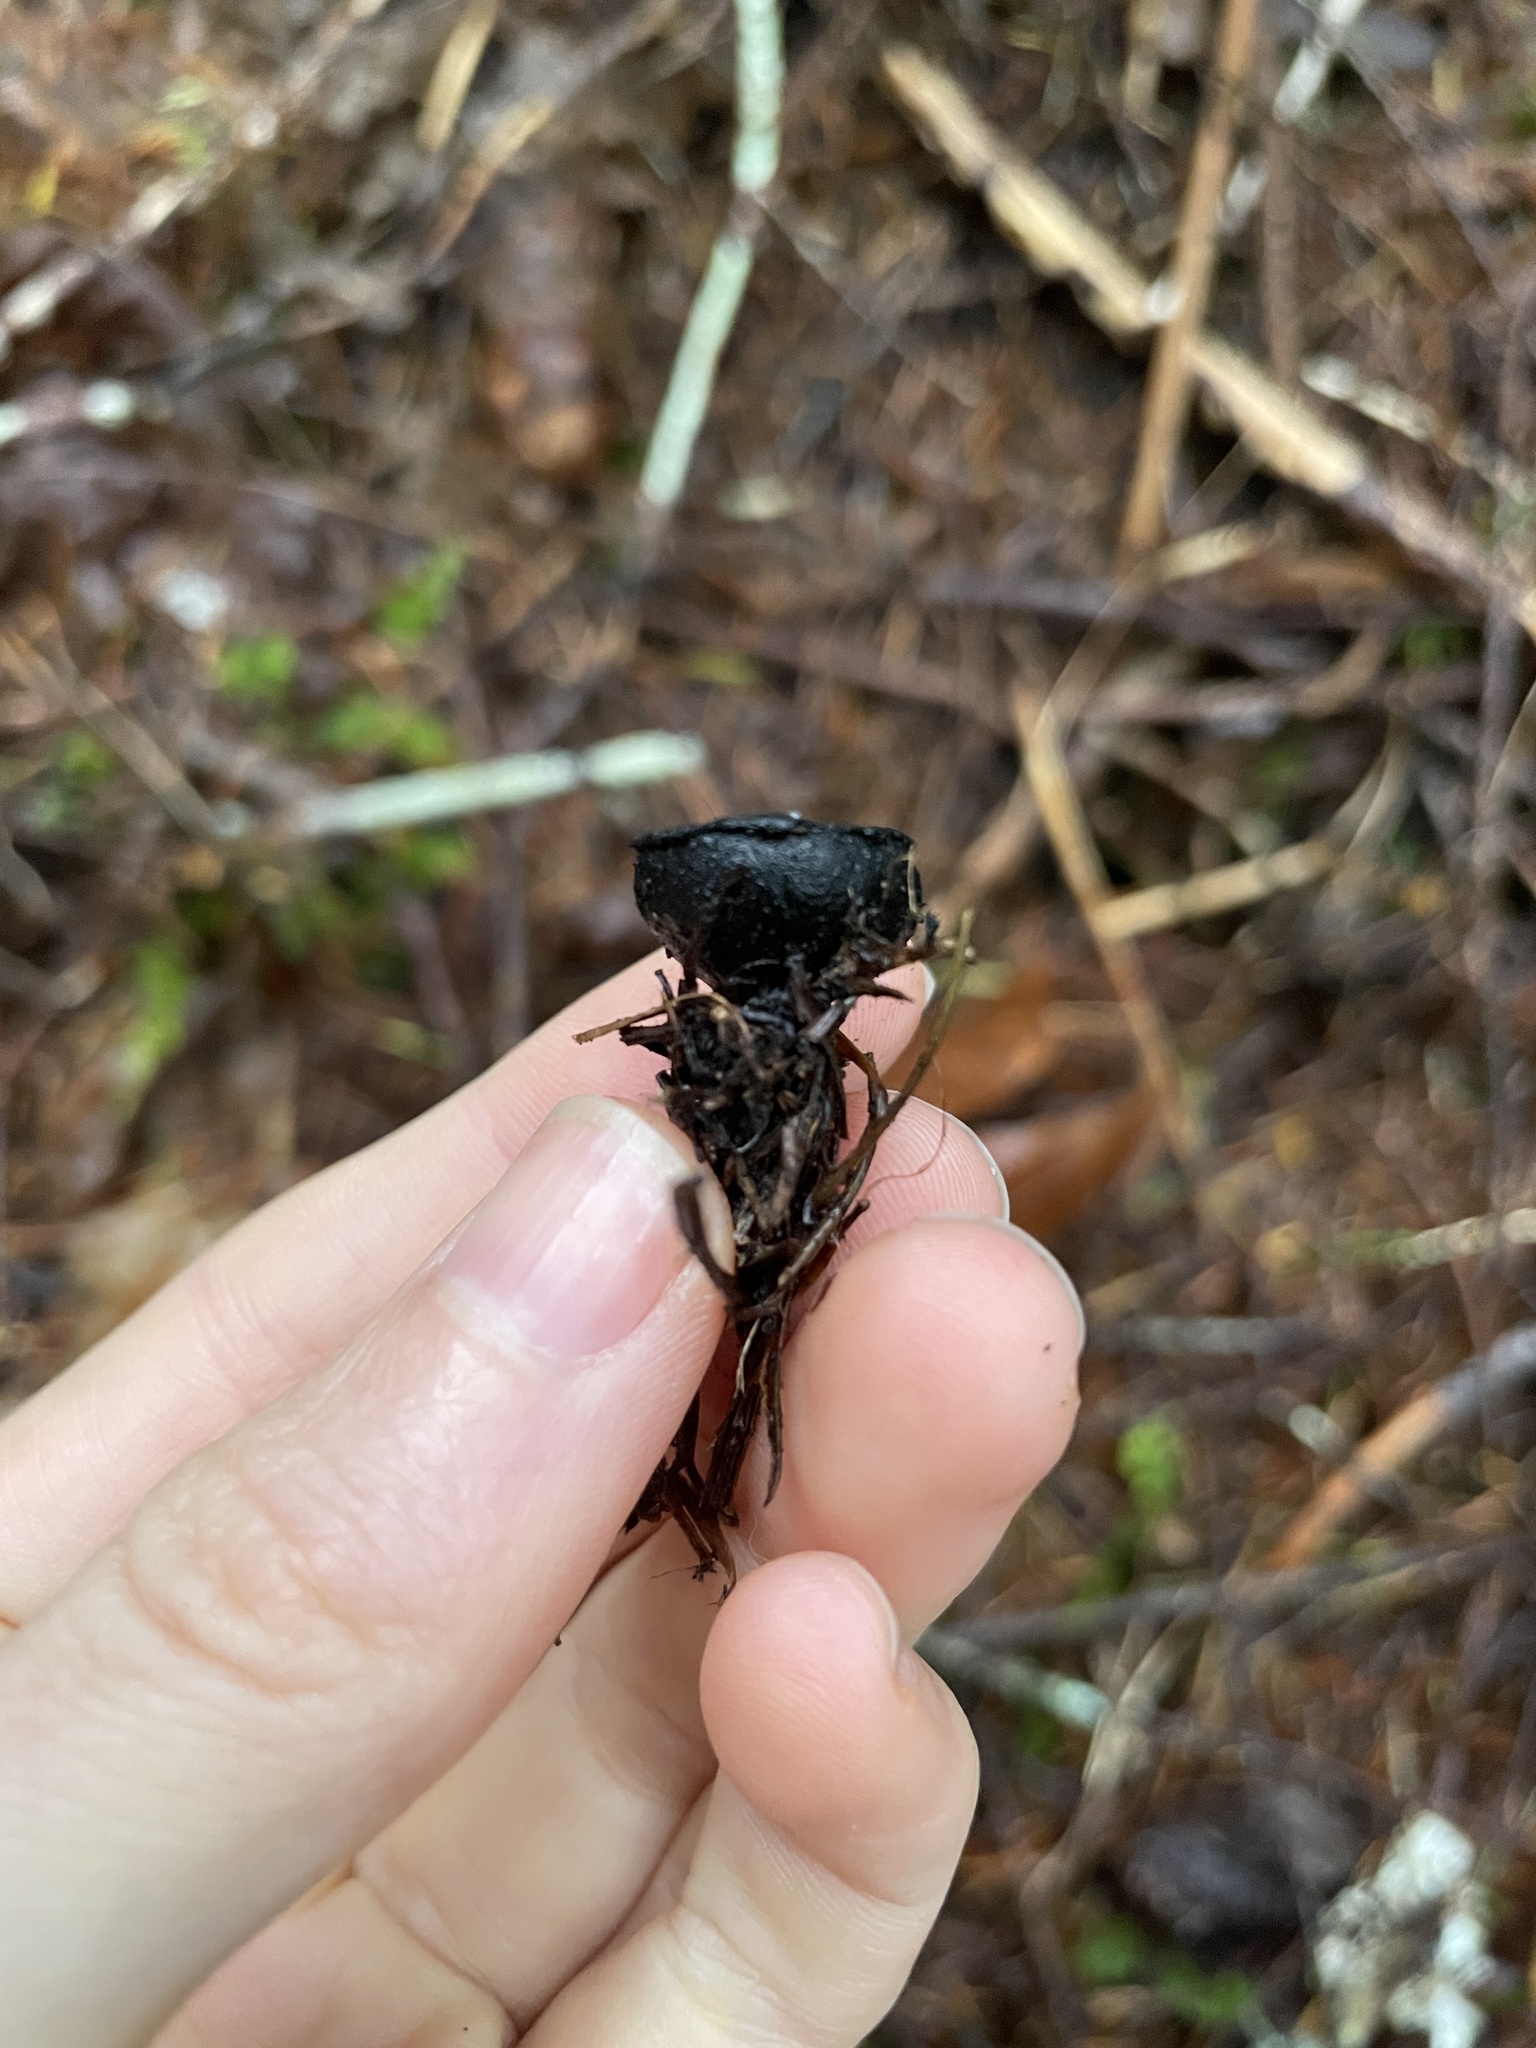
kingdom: Fungi
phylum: Ascomycota
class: Pezizomycetes
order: Pezizales
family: Sarcosomataceae
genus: Pseudoplectania
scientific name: Pseudoplectania nigrella
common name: Ebony cup
